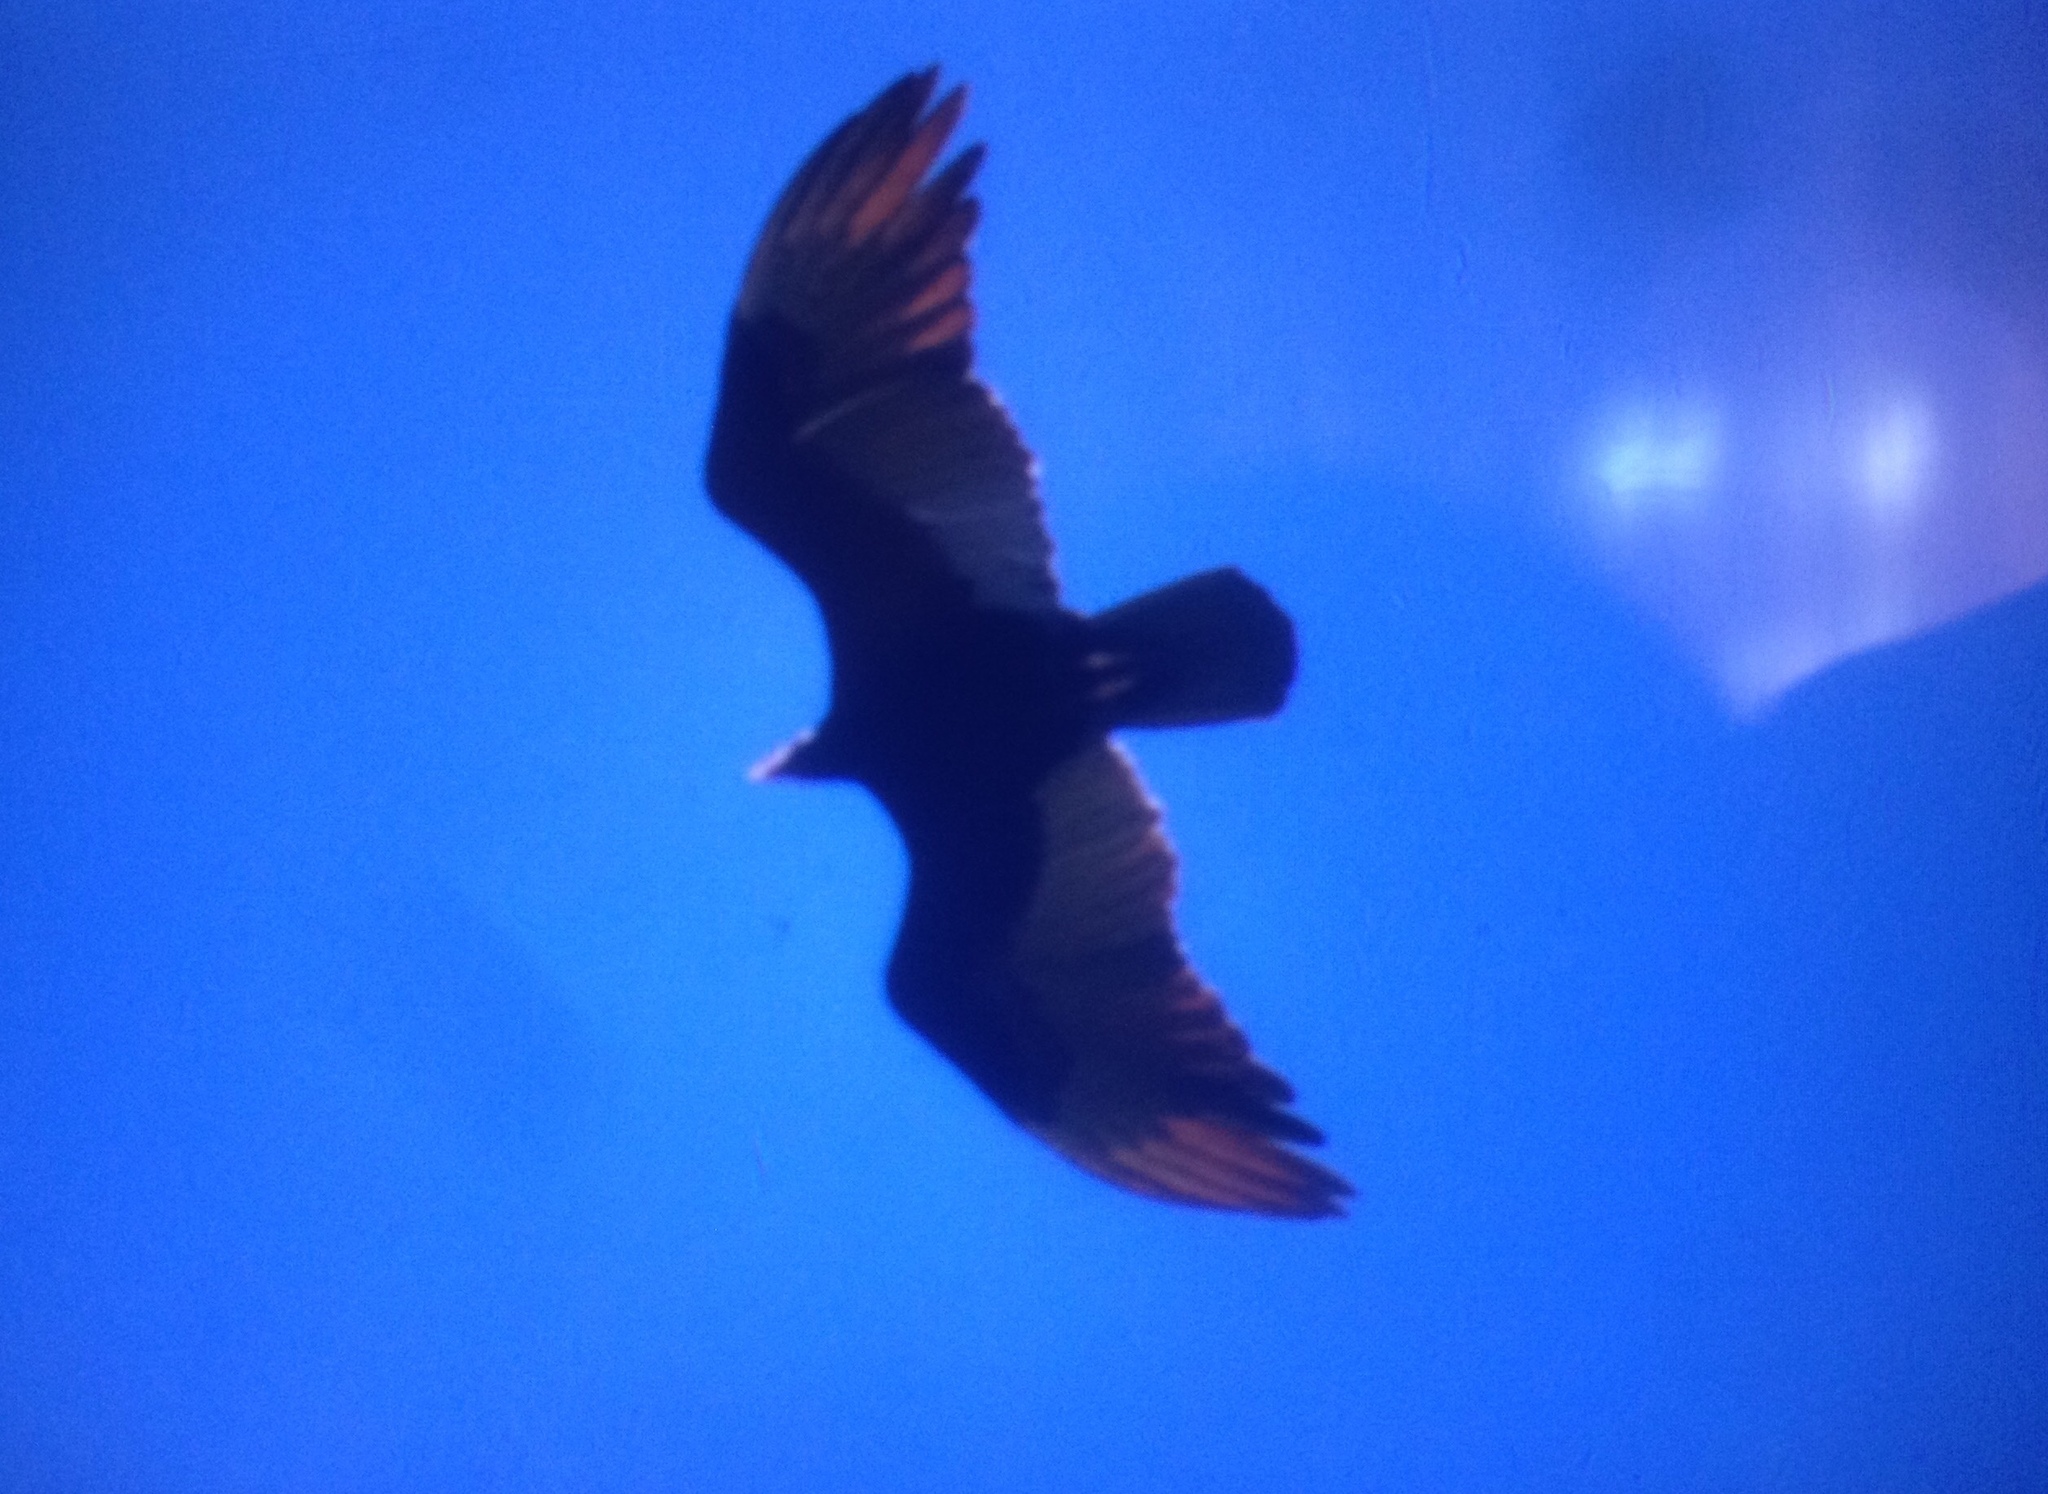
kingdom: Animalia
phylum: Chordata
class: Aves
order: Accipitriformes
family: Cathartidae
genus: Cathartes
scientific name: Cathartes aura
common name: Turkey vulture
